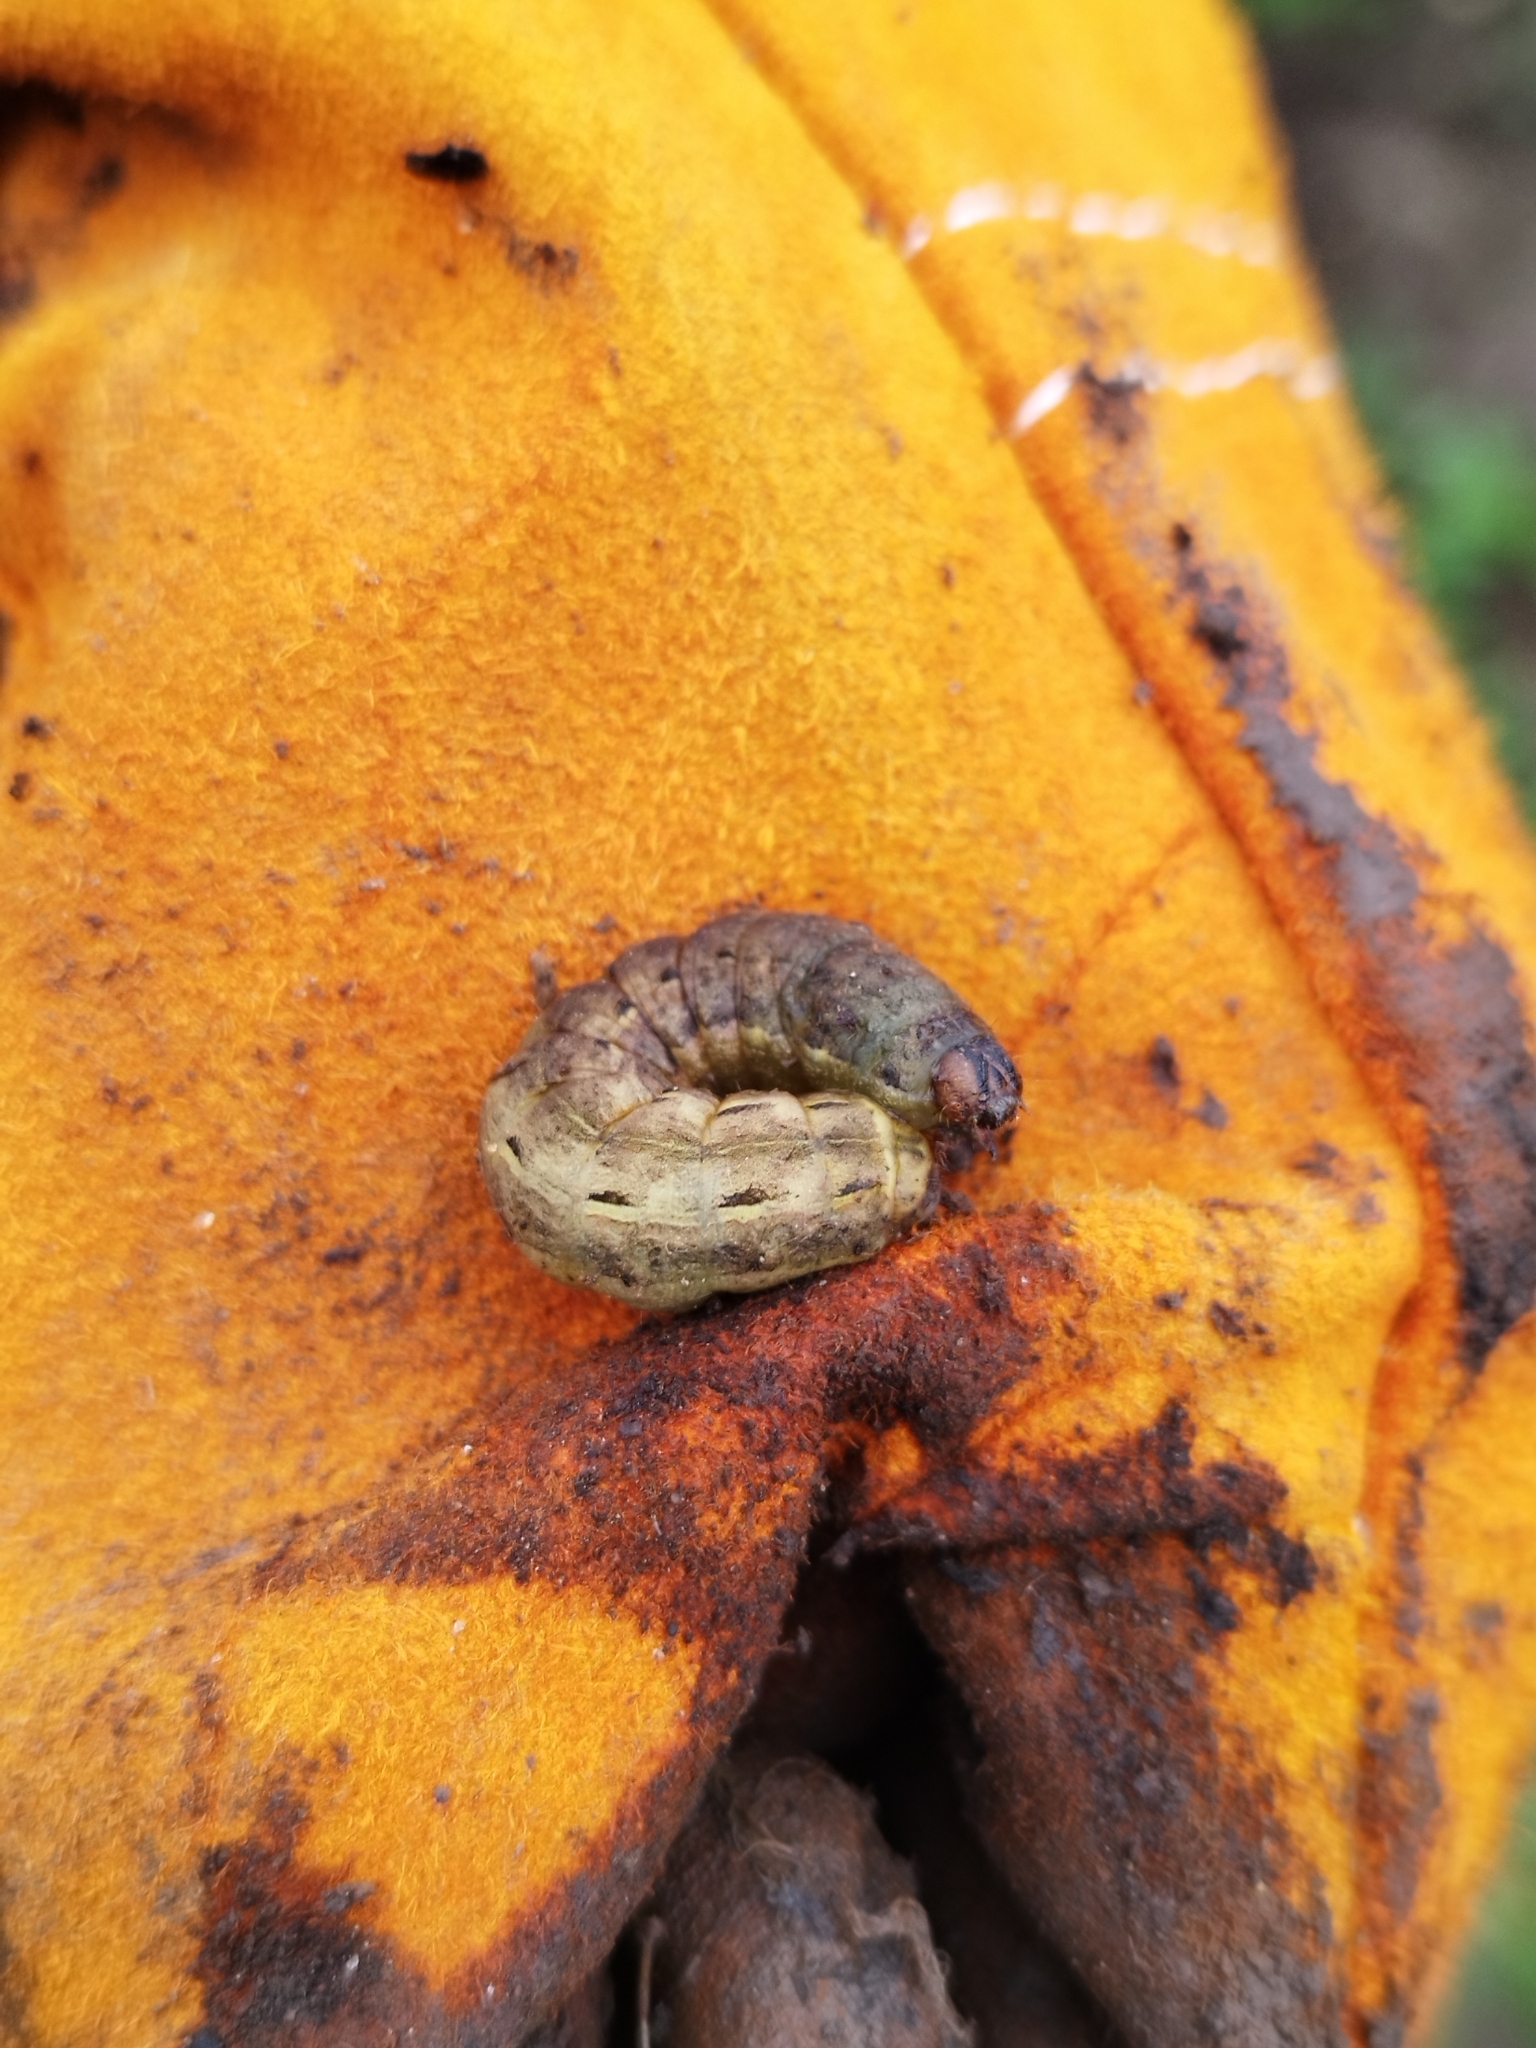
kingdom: Animalia
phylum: Arthropoda
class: Insecta
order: Lepidoptera
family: Noctuidae
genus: Noctua
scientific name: Noctua pronuba
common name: Large yellow underwing
